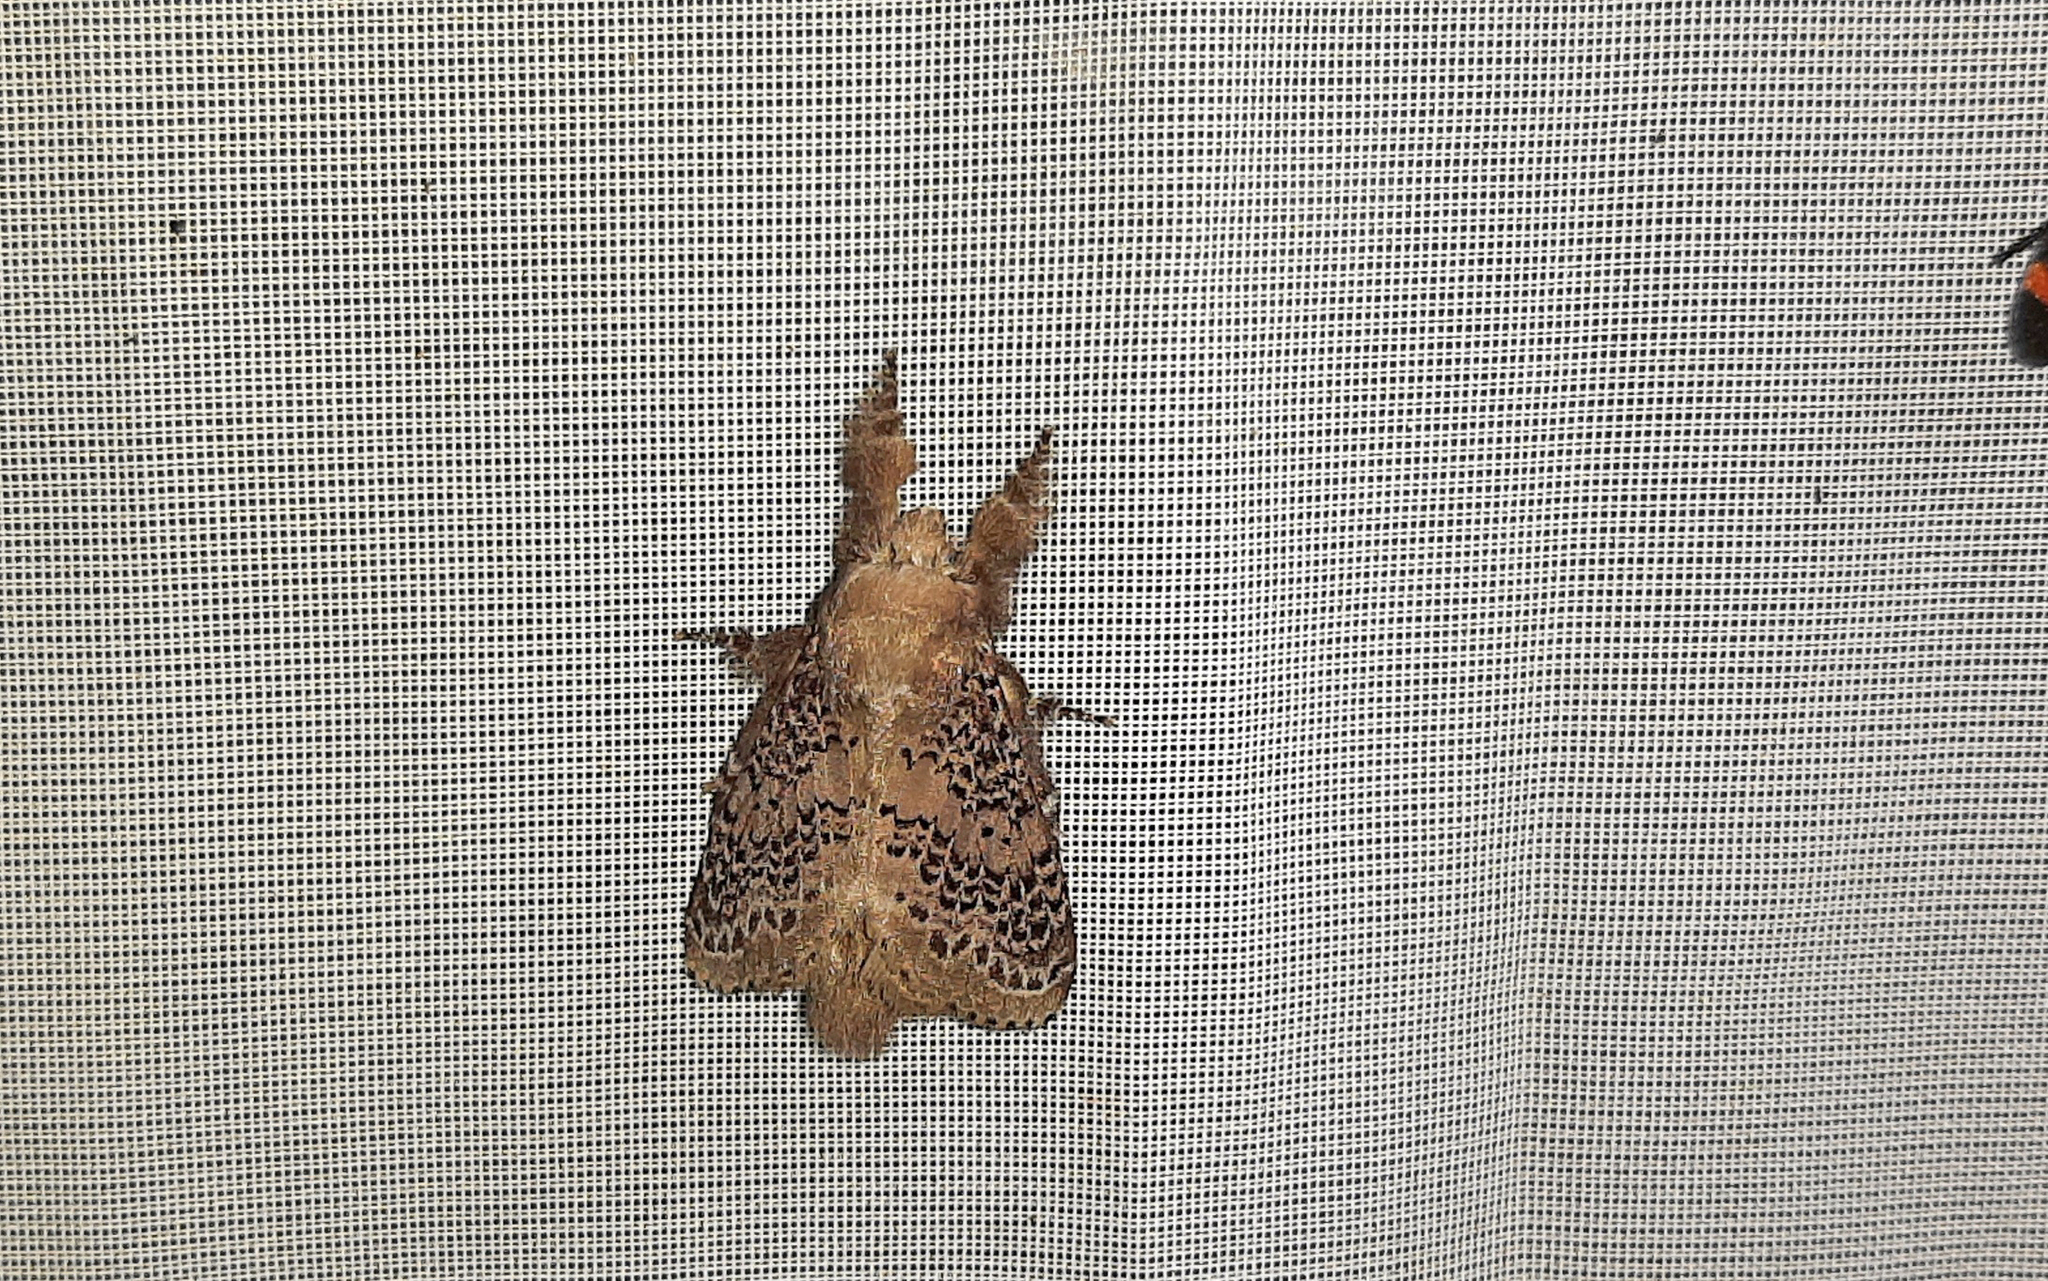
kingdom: Animalia
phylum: Arthropoda
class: Insecta
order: Lepidoptera
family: Lasiocampidae
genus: Euglyphis
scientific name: Euglyphis guttularis
